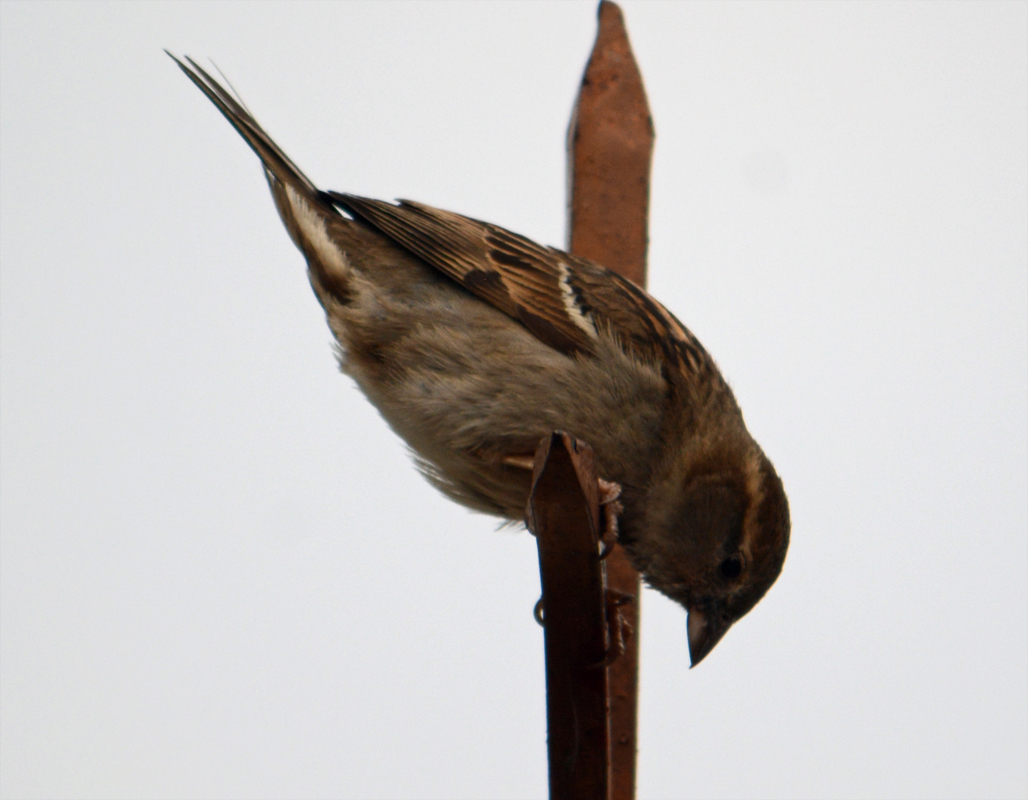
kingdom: Animalia
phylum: Chordata
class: Aves
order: Passeriformes
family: Passeridae
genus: Passer
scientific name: Passer domesticus
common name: House sparrow
